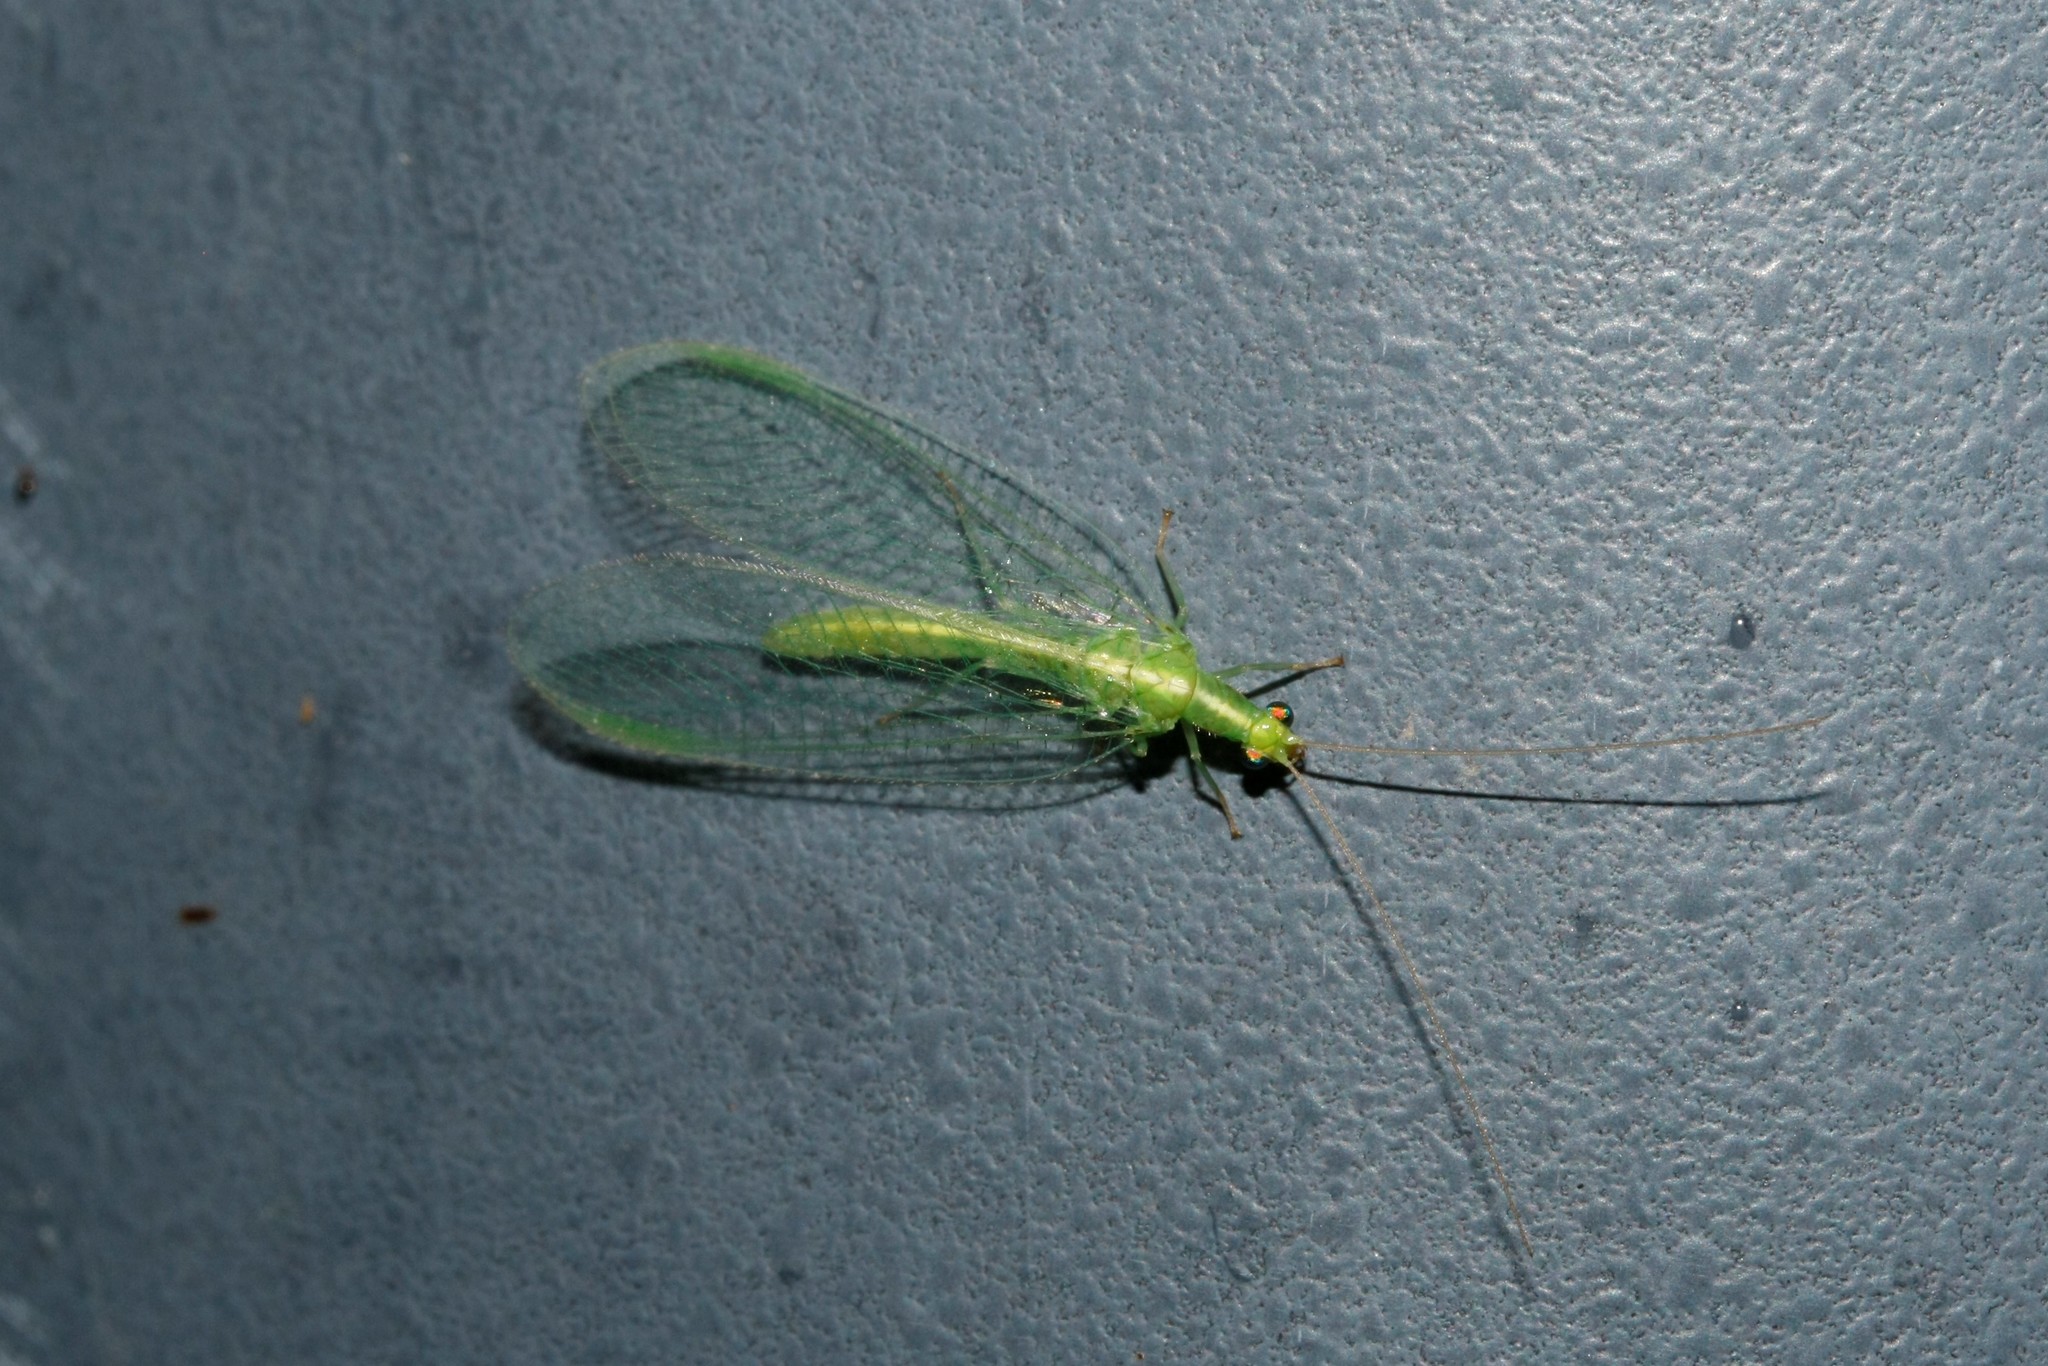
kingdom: Animalia
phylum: Arthropoda
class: Insecta
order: Neuroptera
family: Chrysopidae
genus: Chrysoperla
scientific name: Chrysoperla
